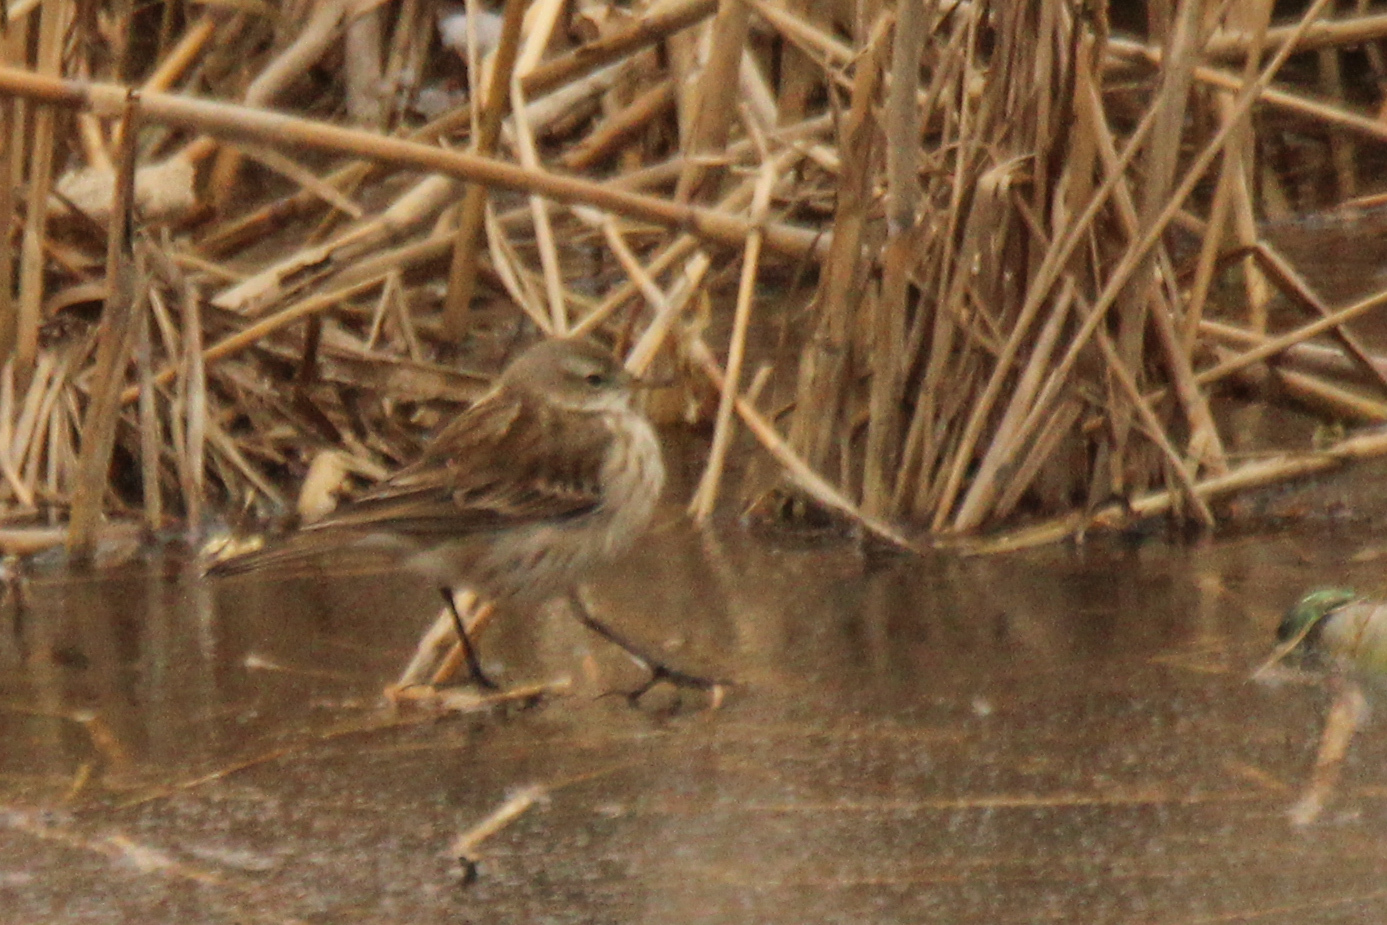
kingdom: Animalia
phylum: Chordata
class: Aves
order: Passeriformes
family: Motacillidae
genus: Anthus
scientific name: Anthus spinoletta
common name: Water pipit
